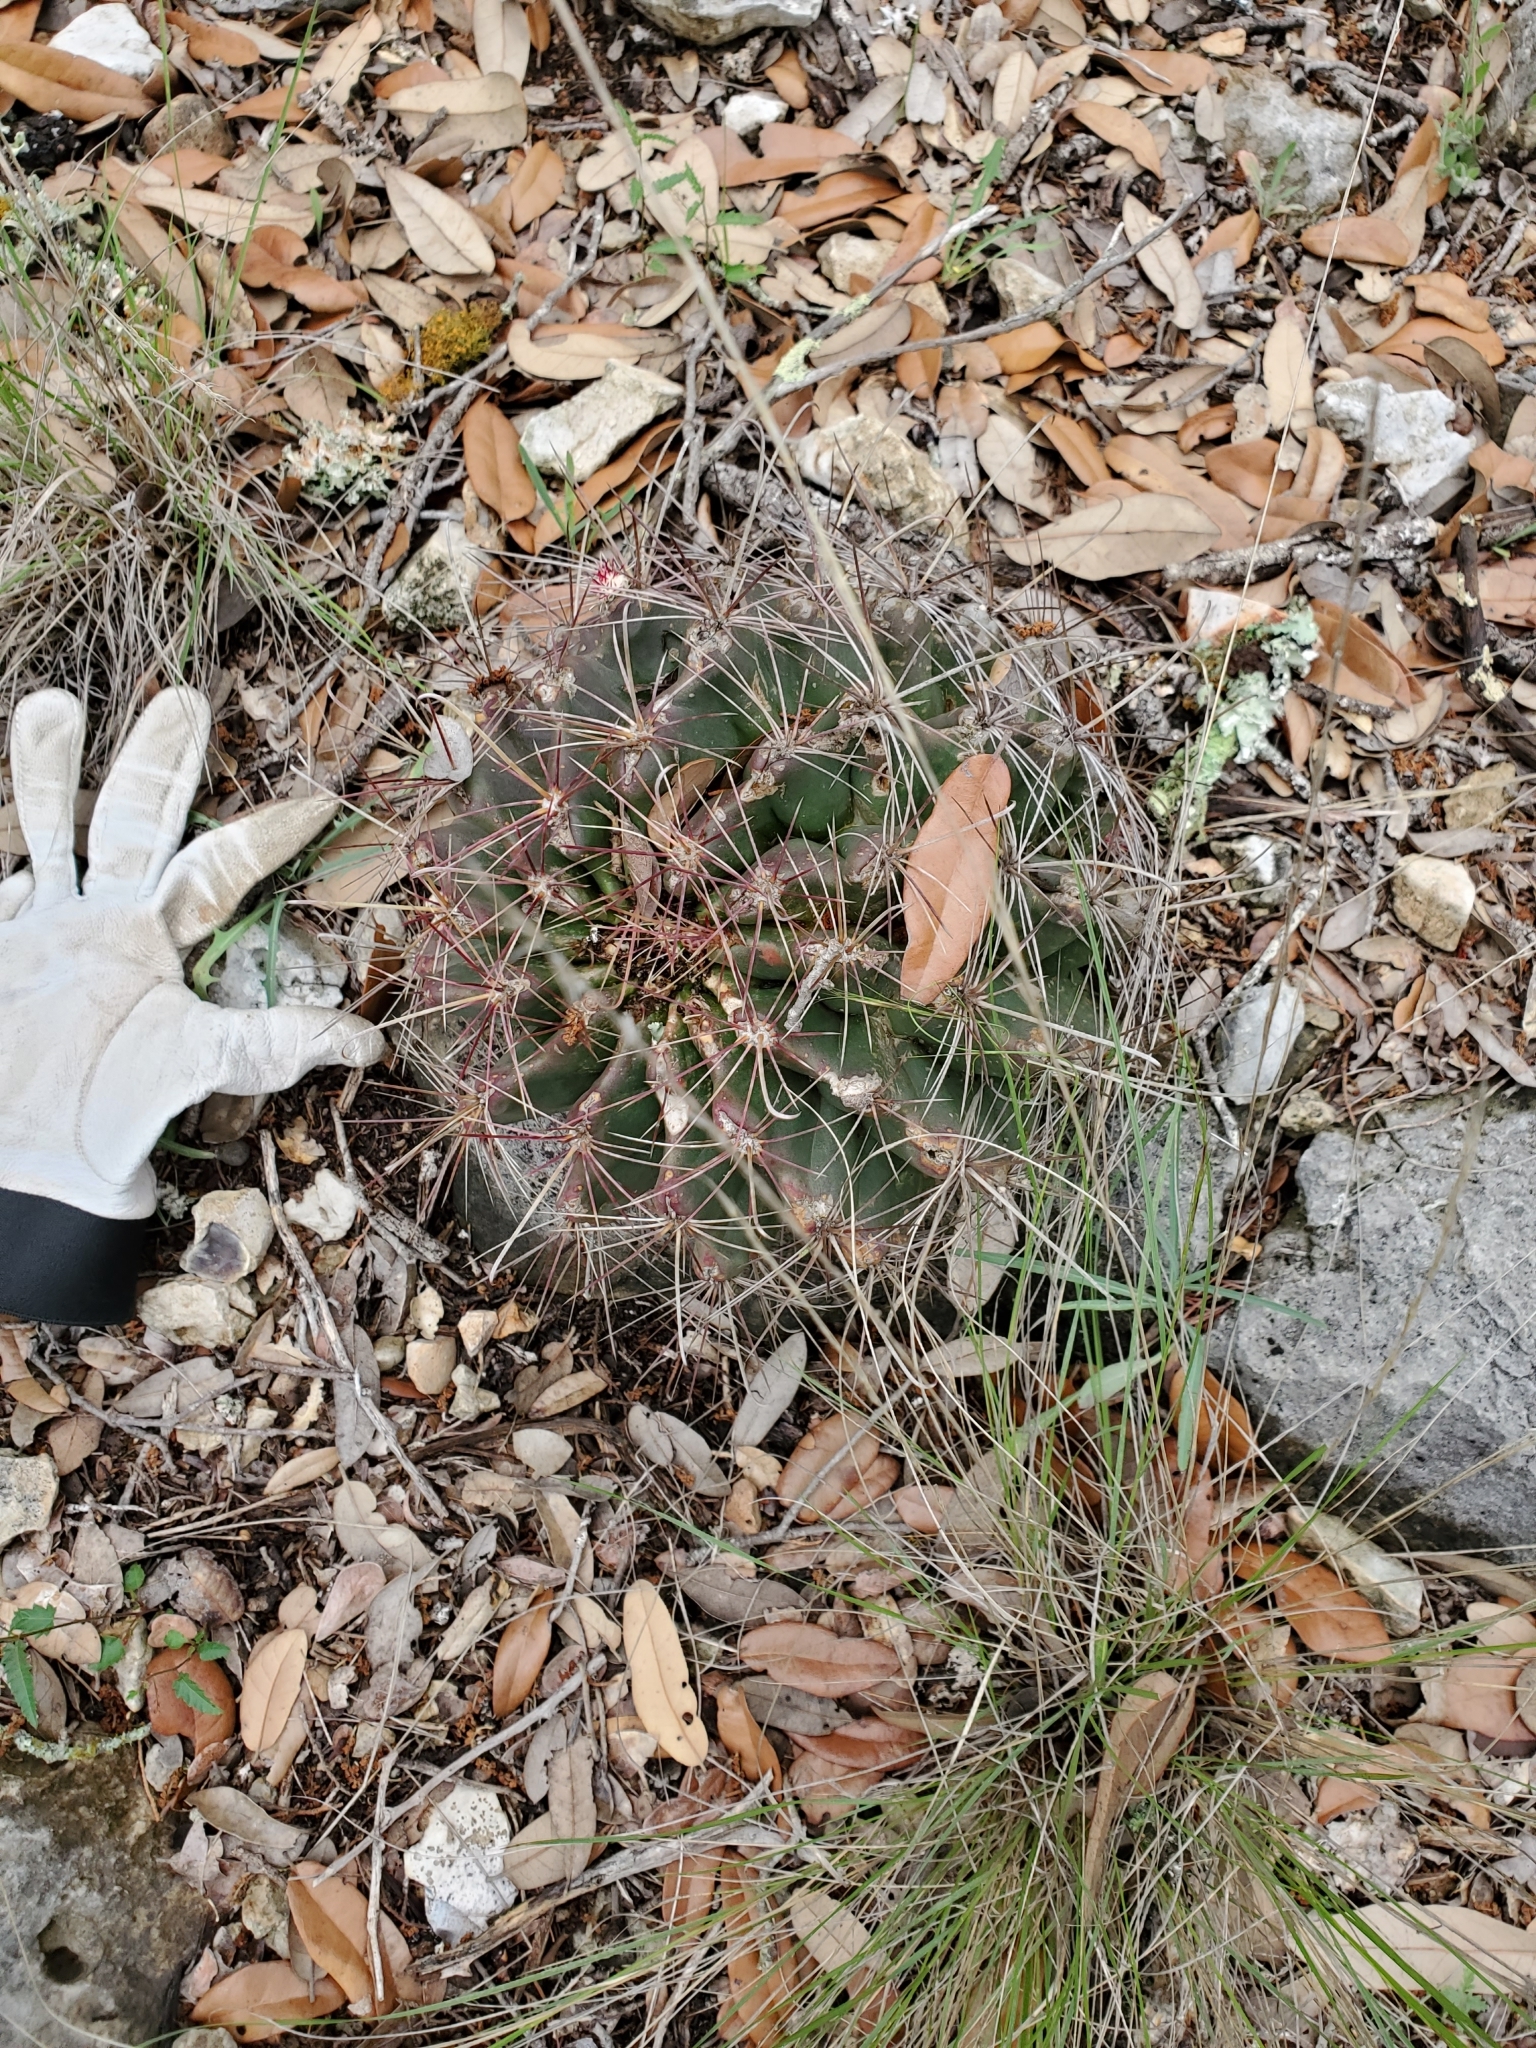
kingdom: Plantae
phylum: Tracheophyta
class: Magnoliopsida
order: Caryophyllales
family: Cactaceae
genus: Bisnaga
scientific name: Bisnaga hamatacantha
